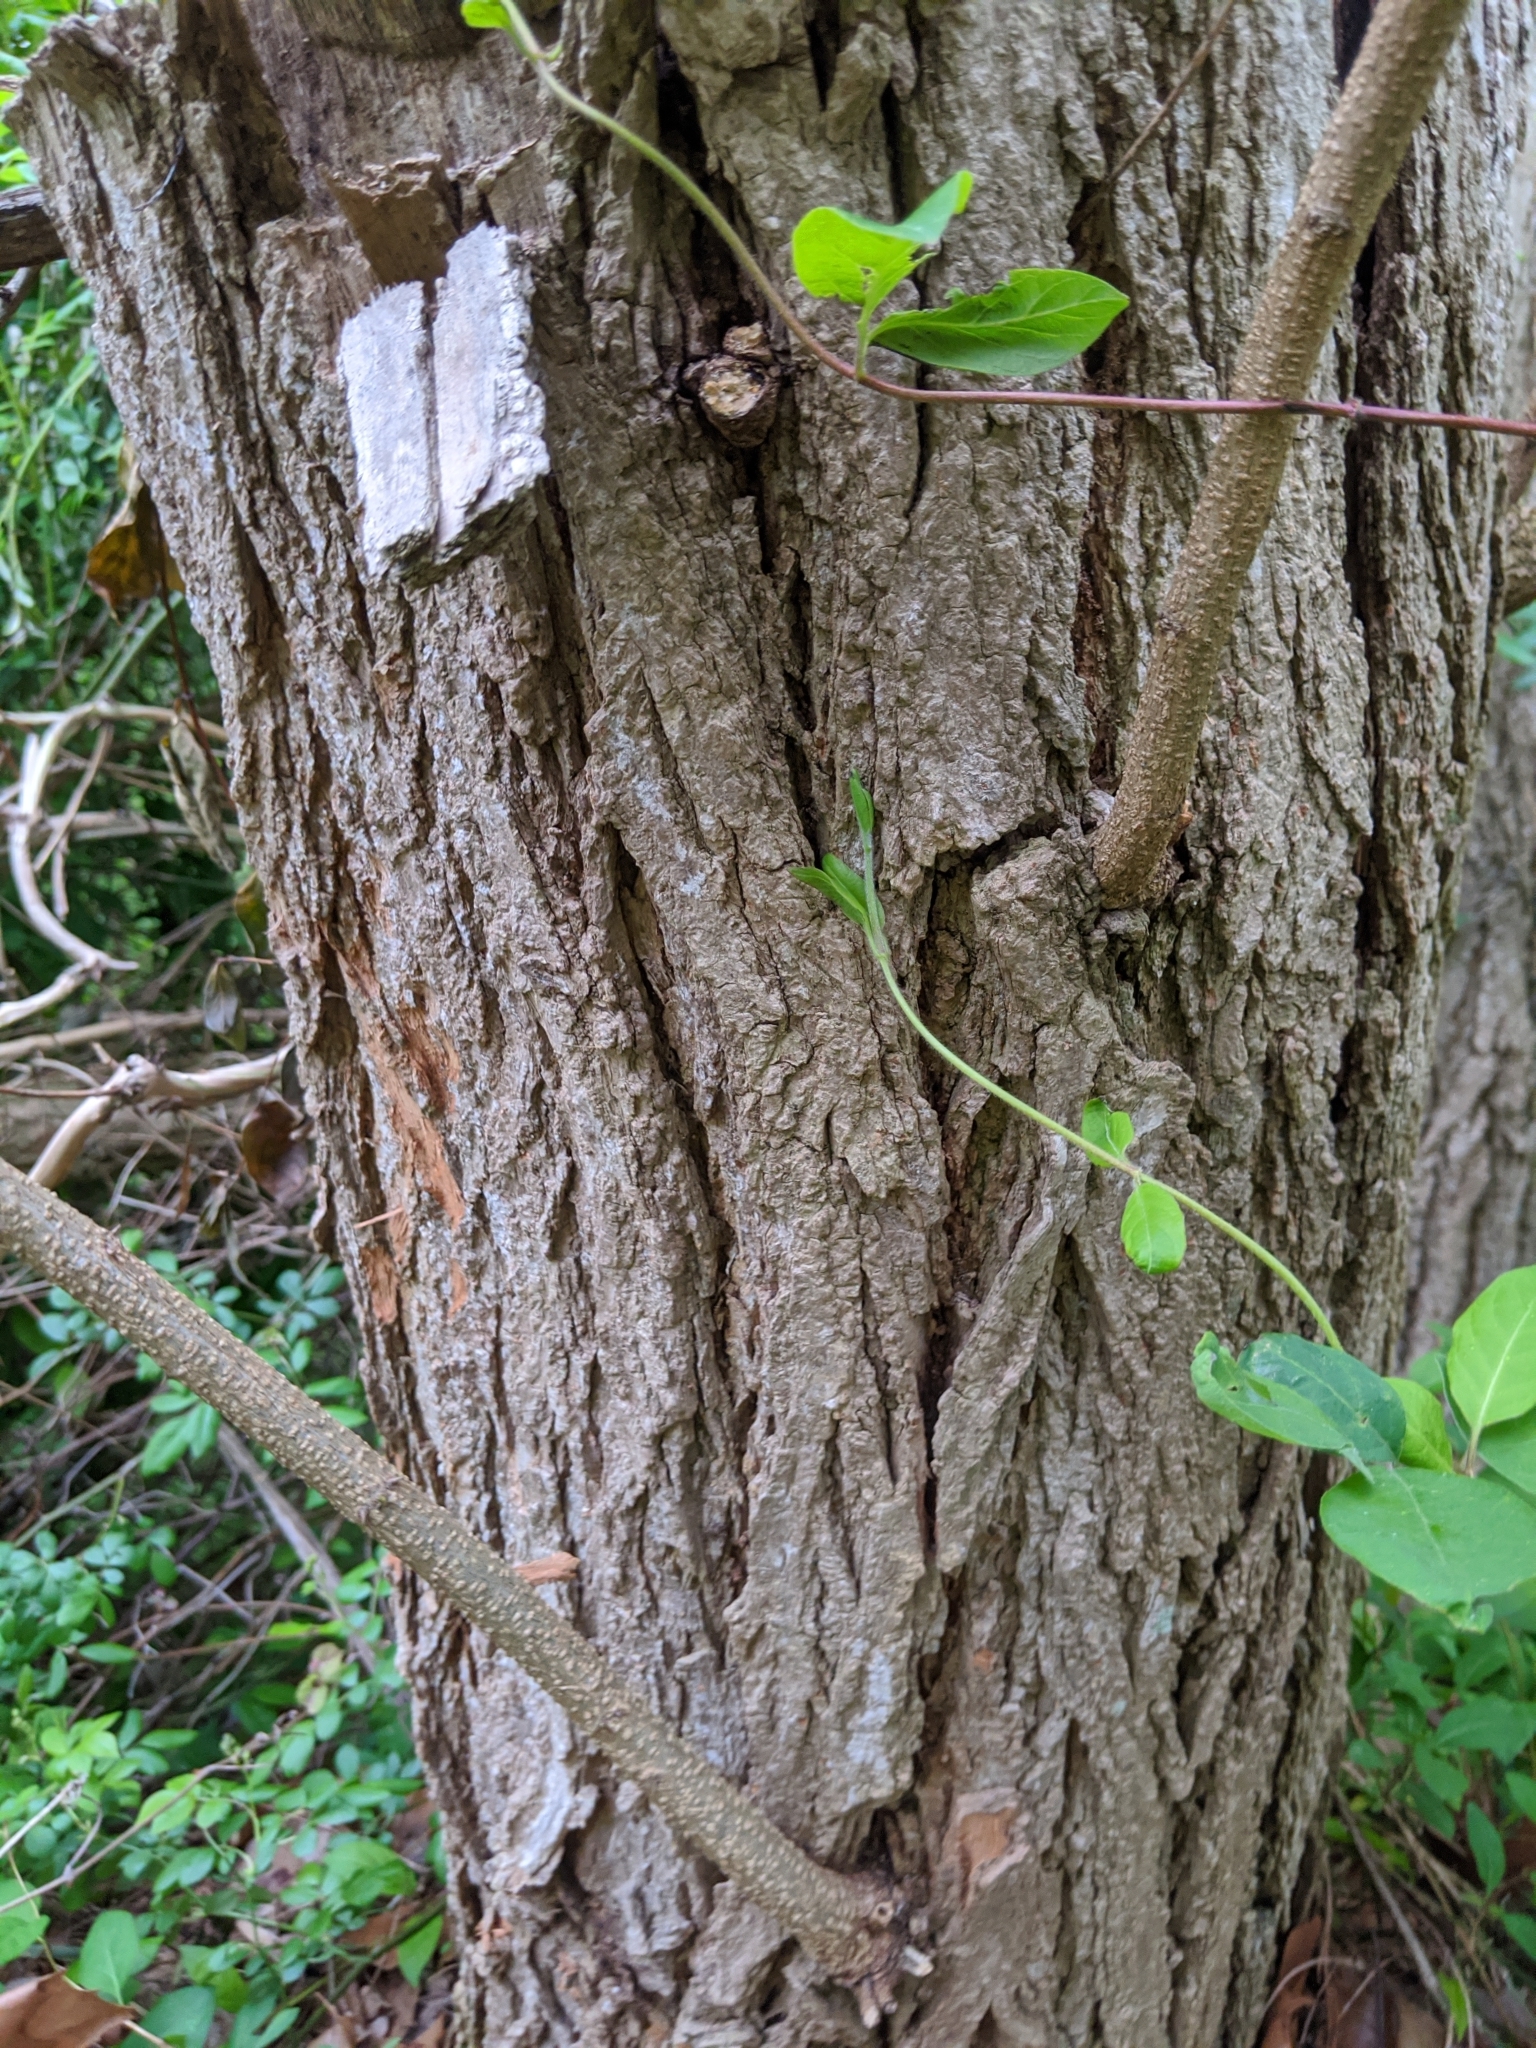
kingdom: Plantae
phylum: Tracheophyta
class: Magnoliopsida
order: Fabales
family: Fabaceae
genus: Robinia
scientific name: Robinia pseudoacacia
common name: Black locust
